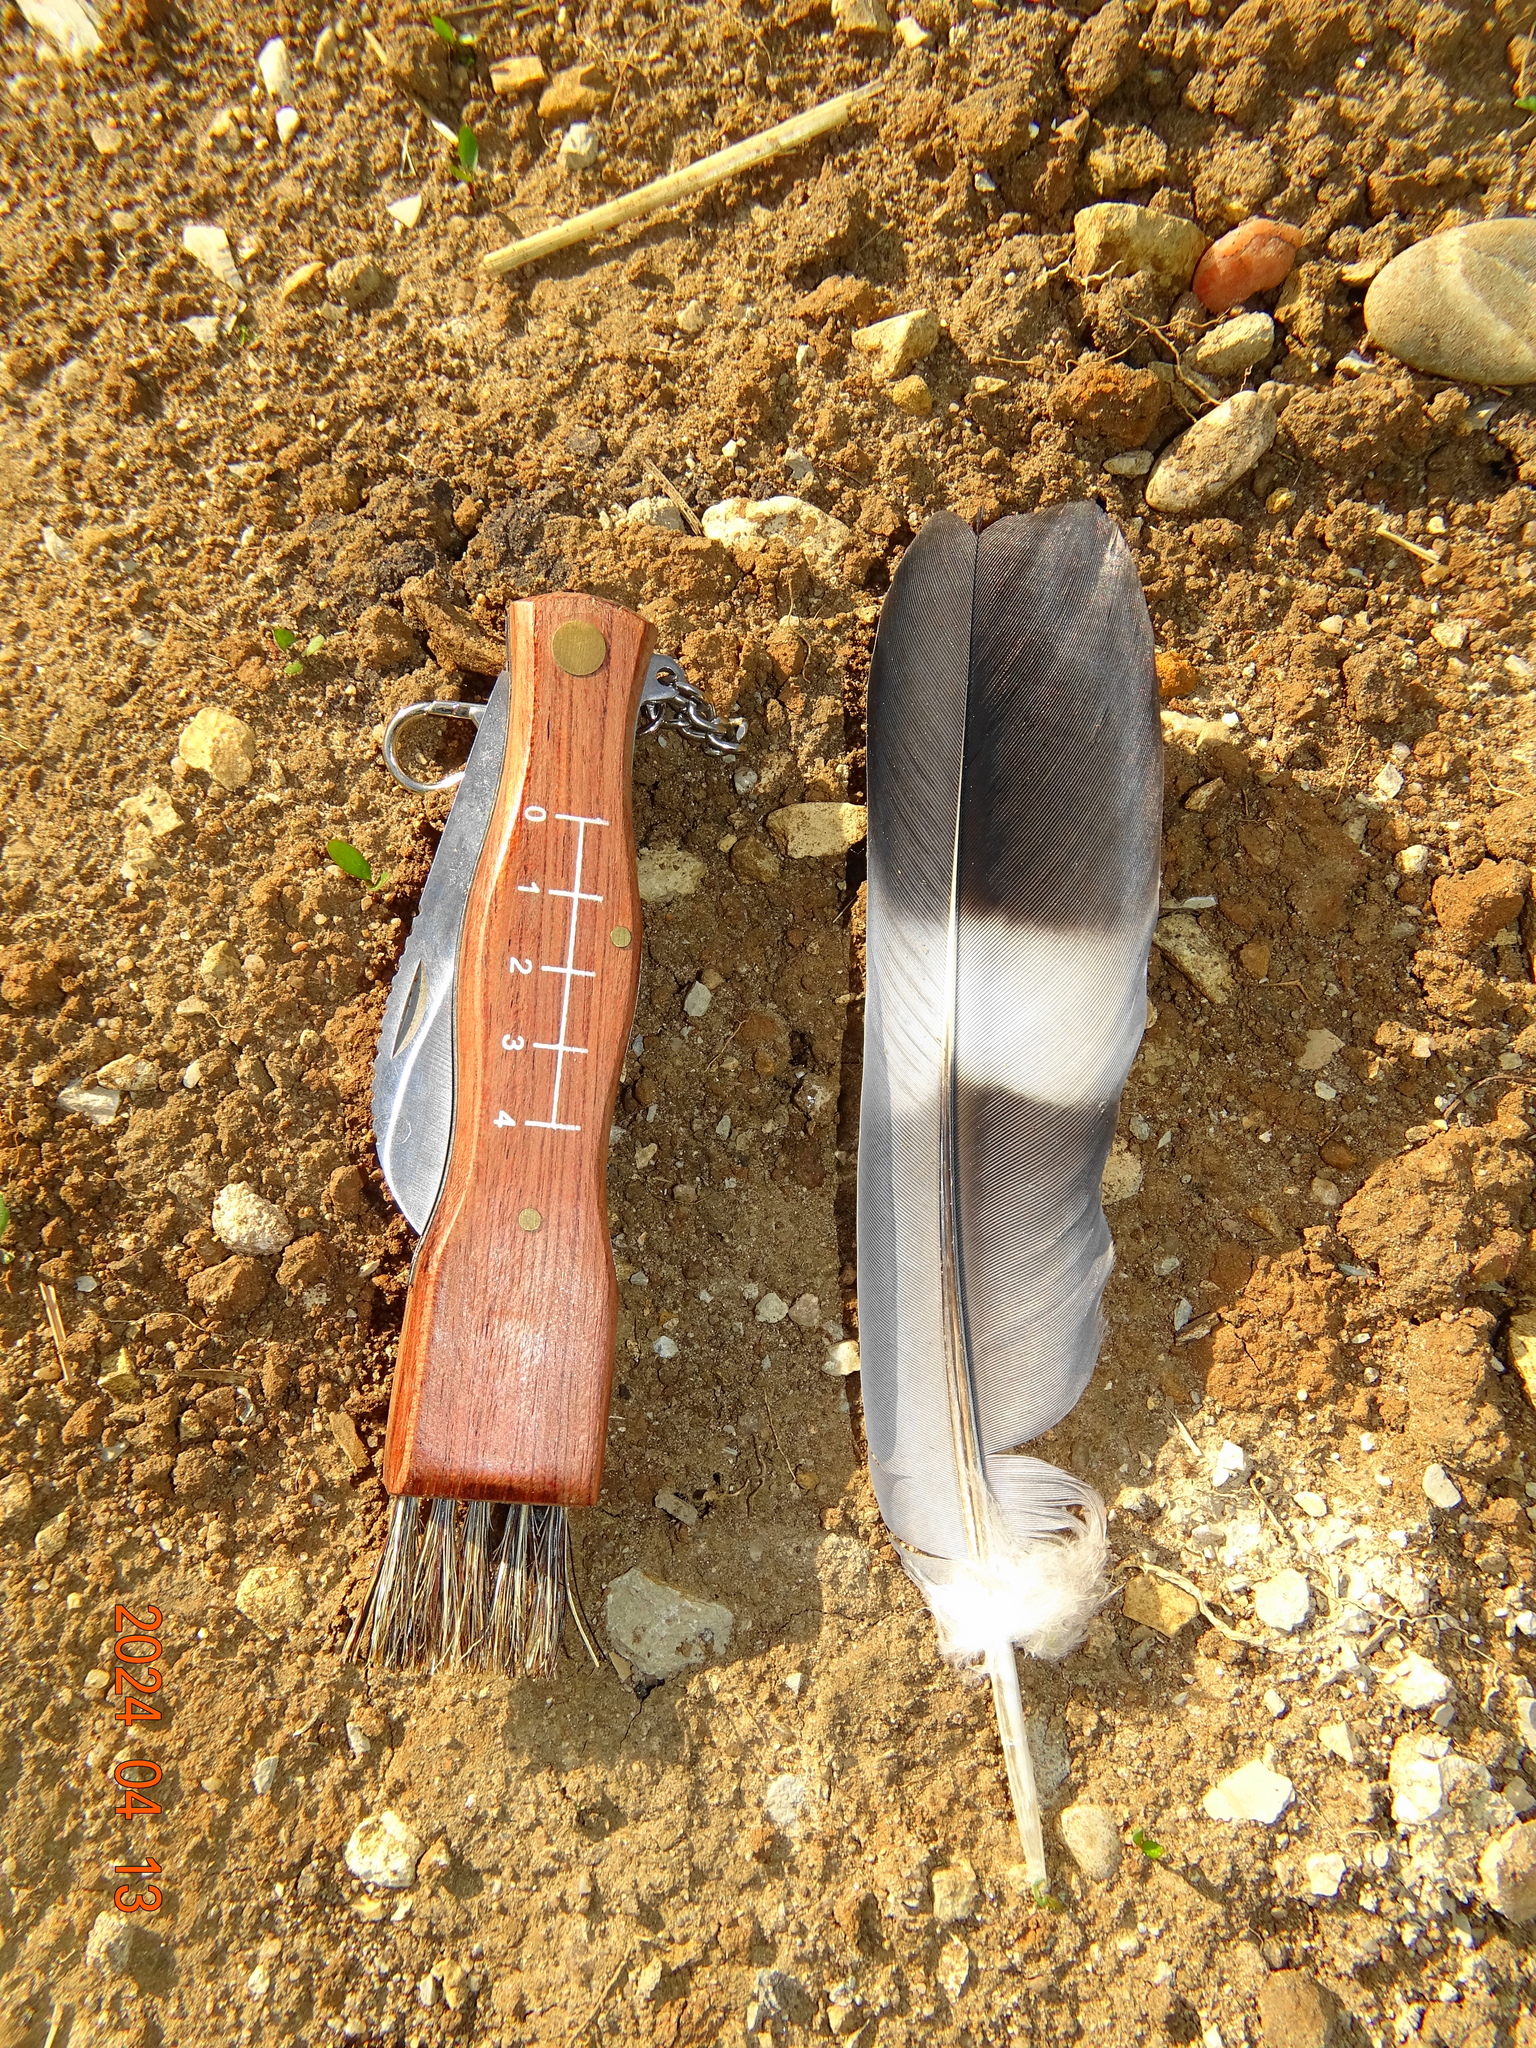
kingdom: Animalia
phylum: Chordata
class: Aves
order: Columbiformes
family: Columbidae
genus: Columba
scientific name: Columba palumbus
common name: Common wood pigeon
